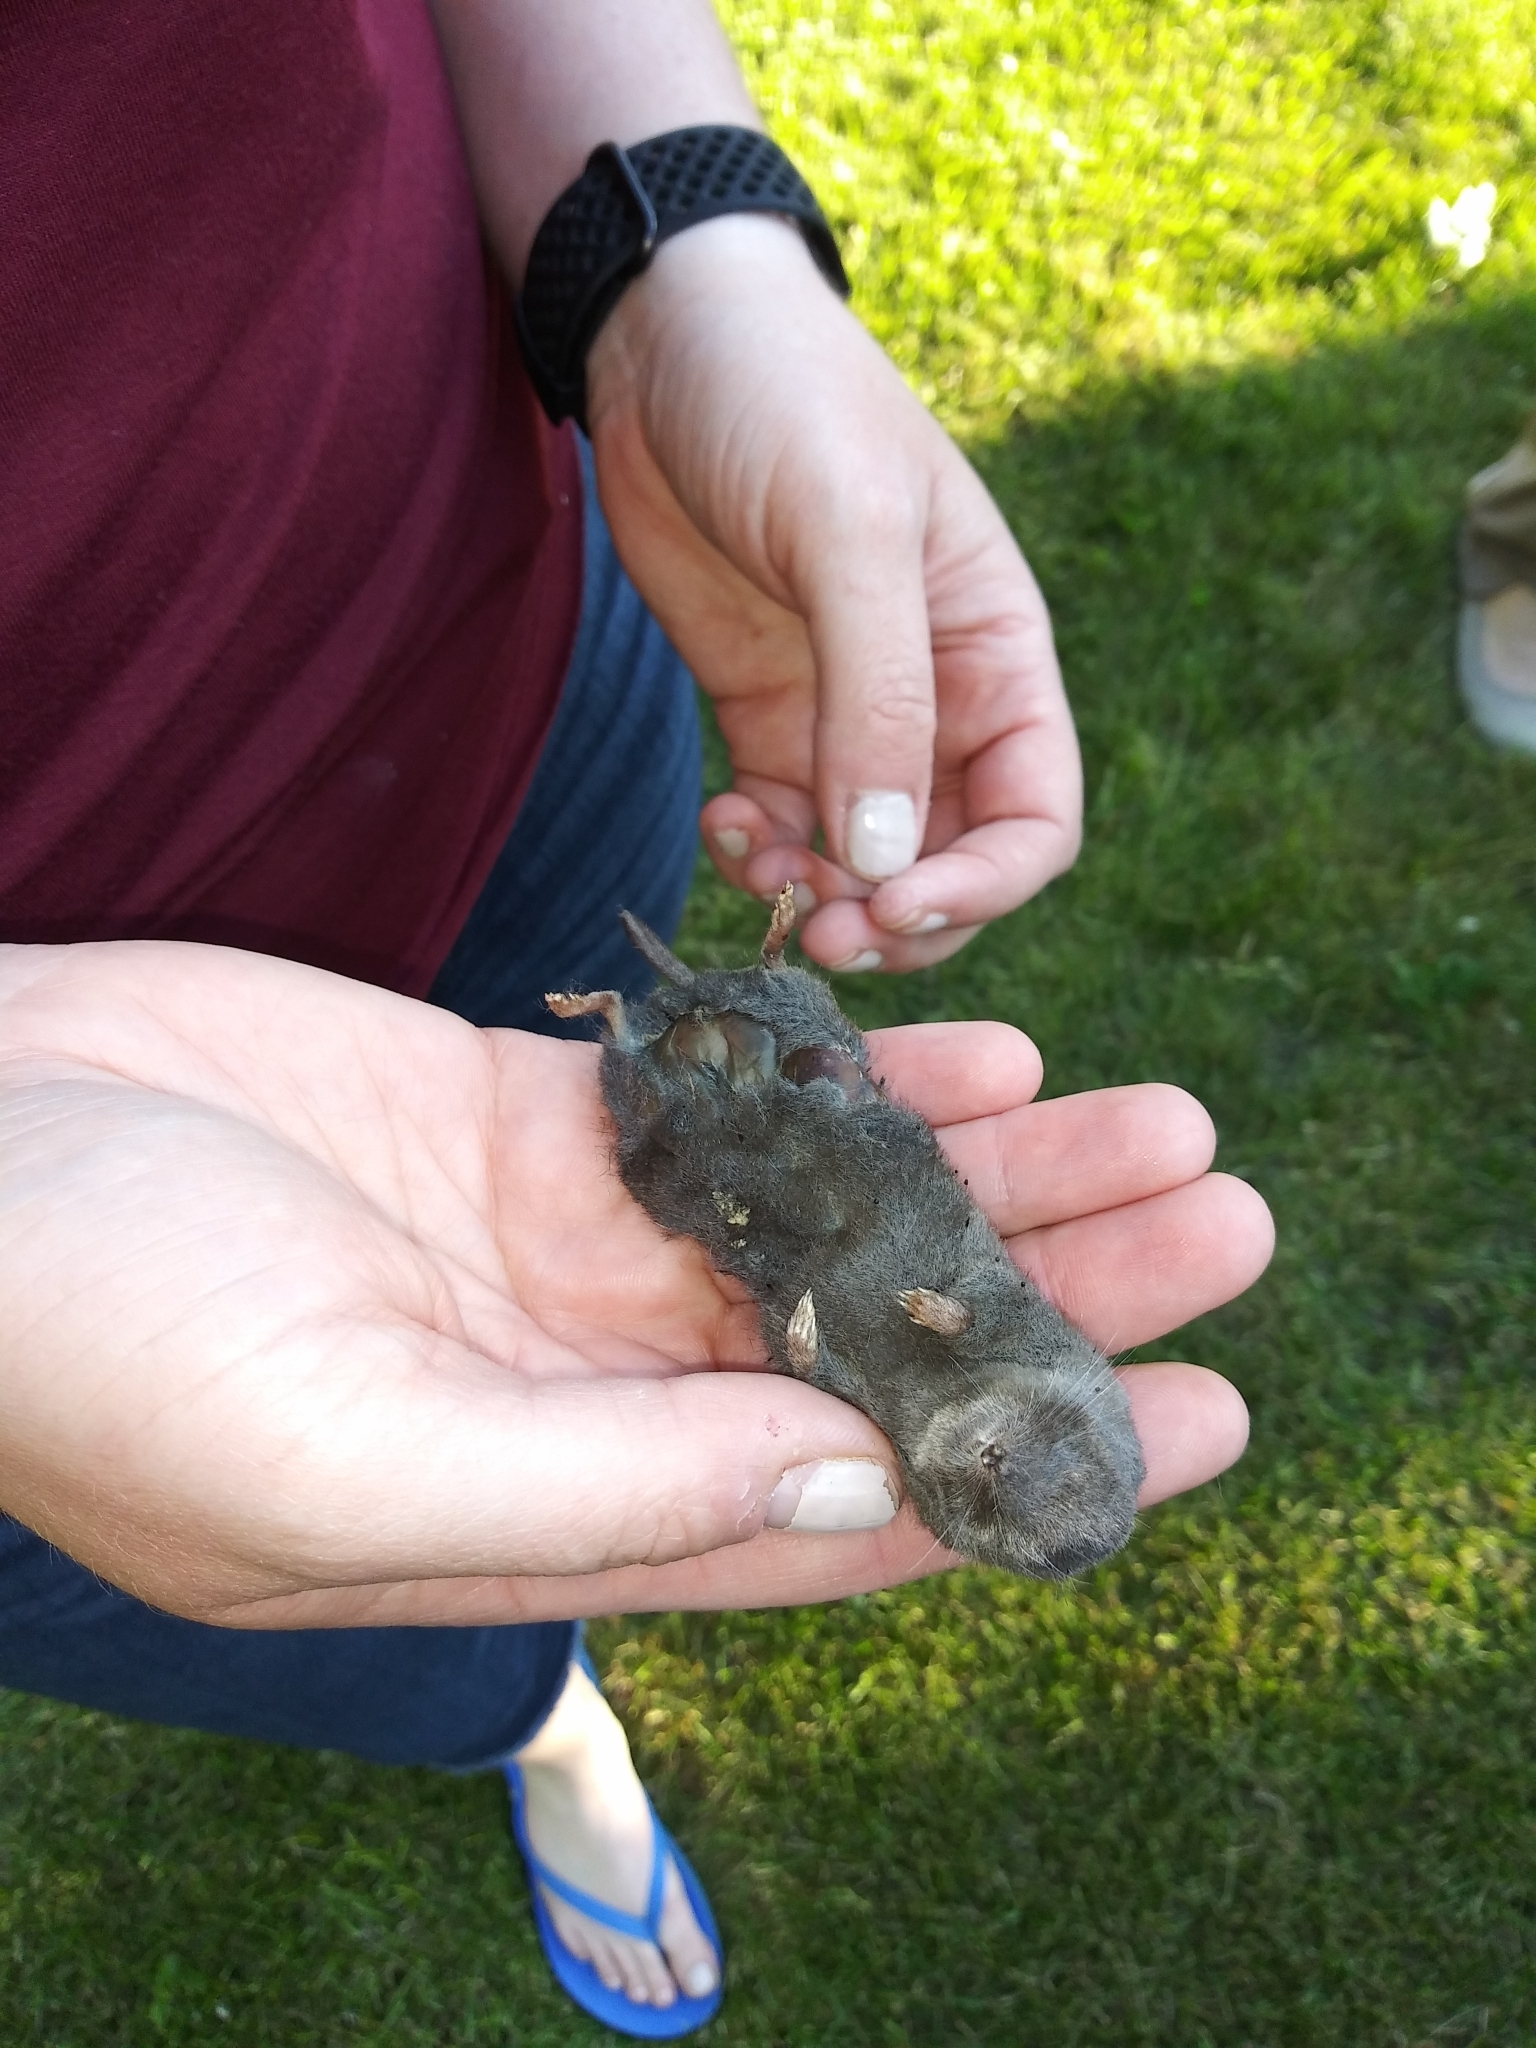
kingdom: Animalia
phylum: Chordata
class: Mammalia
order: Soricomorpha
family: Soricidae
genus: Blarina
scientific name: Blarina brevicauda
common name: Northern short-tailed shrew
